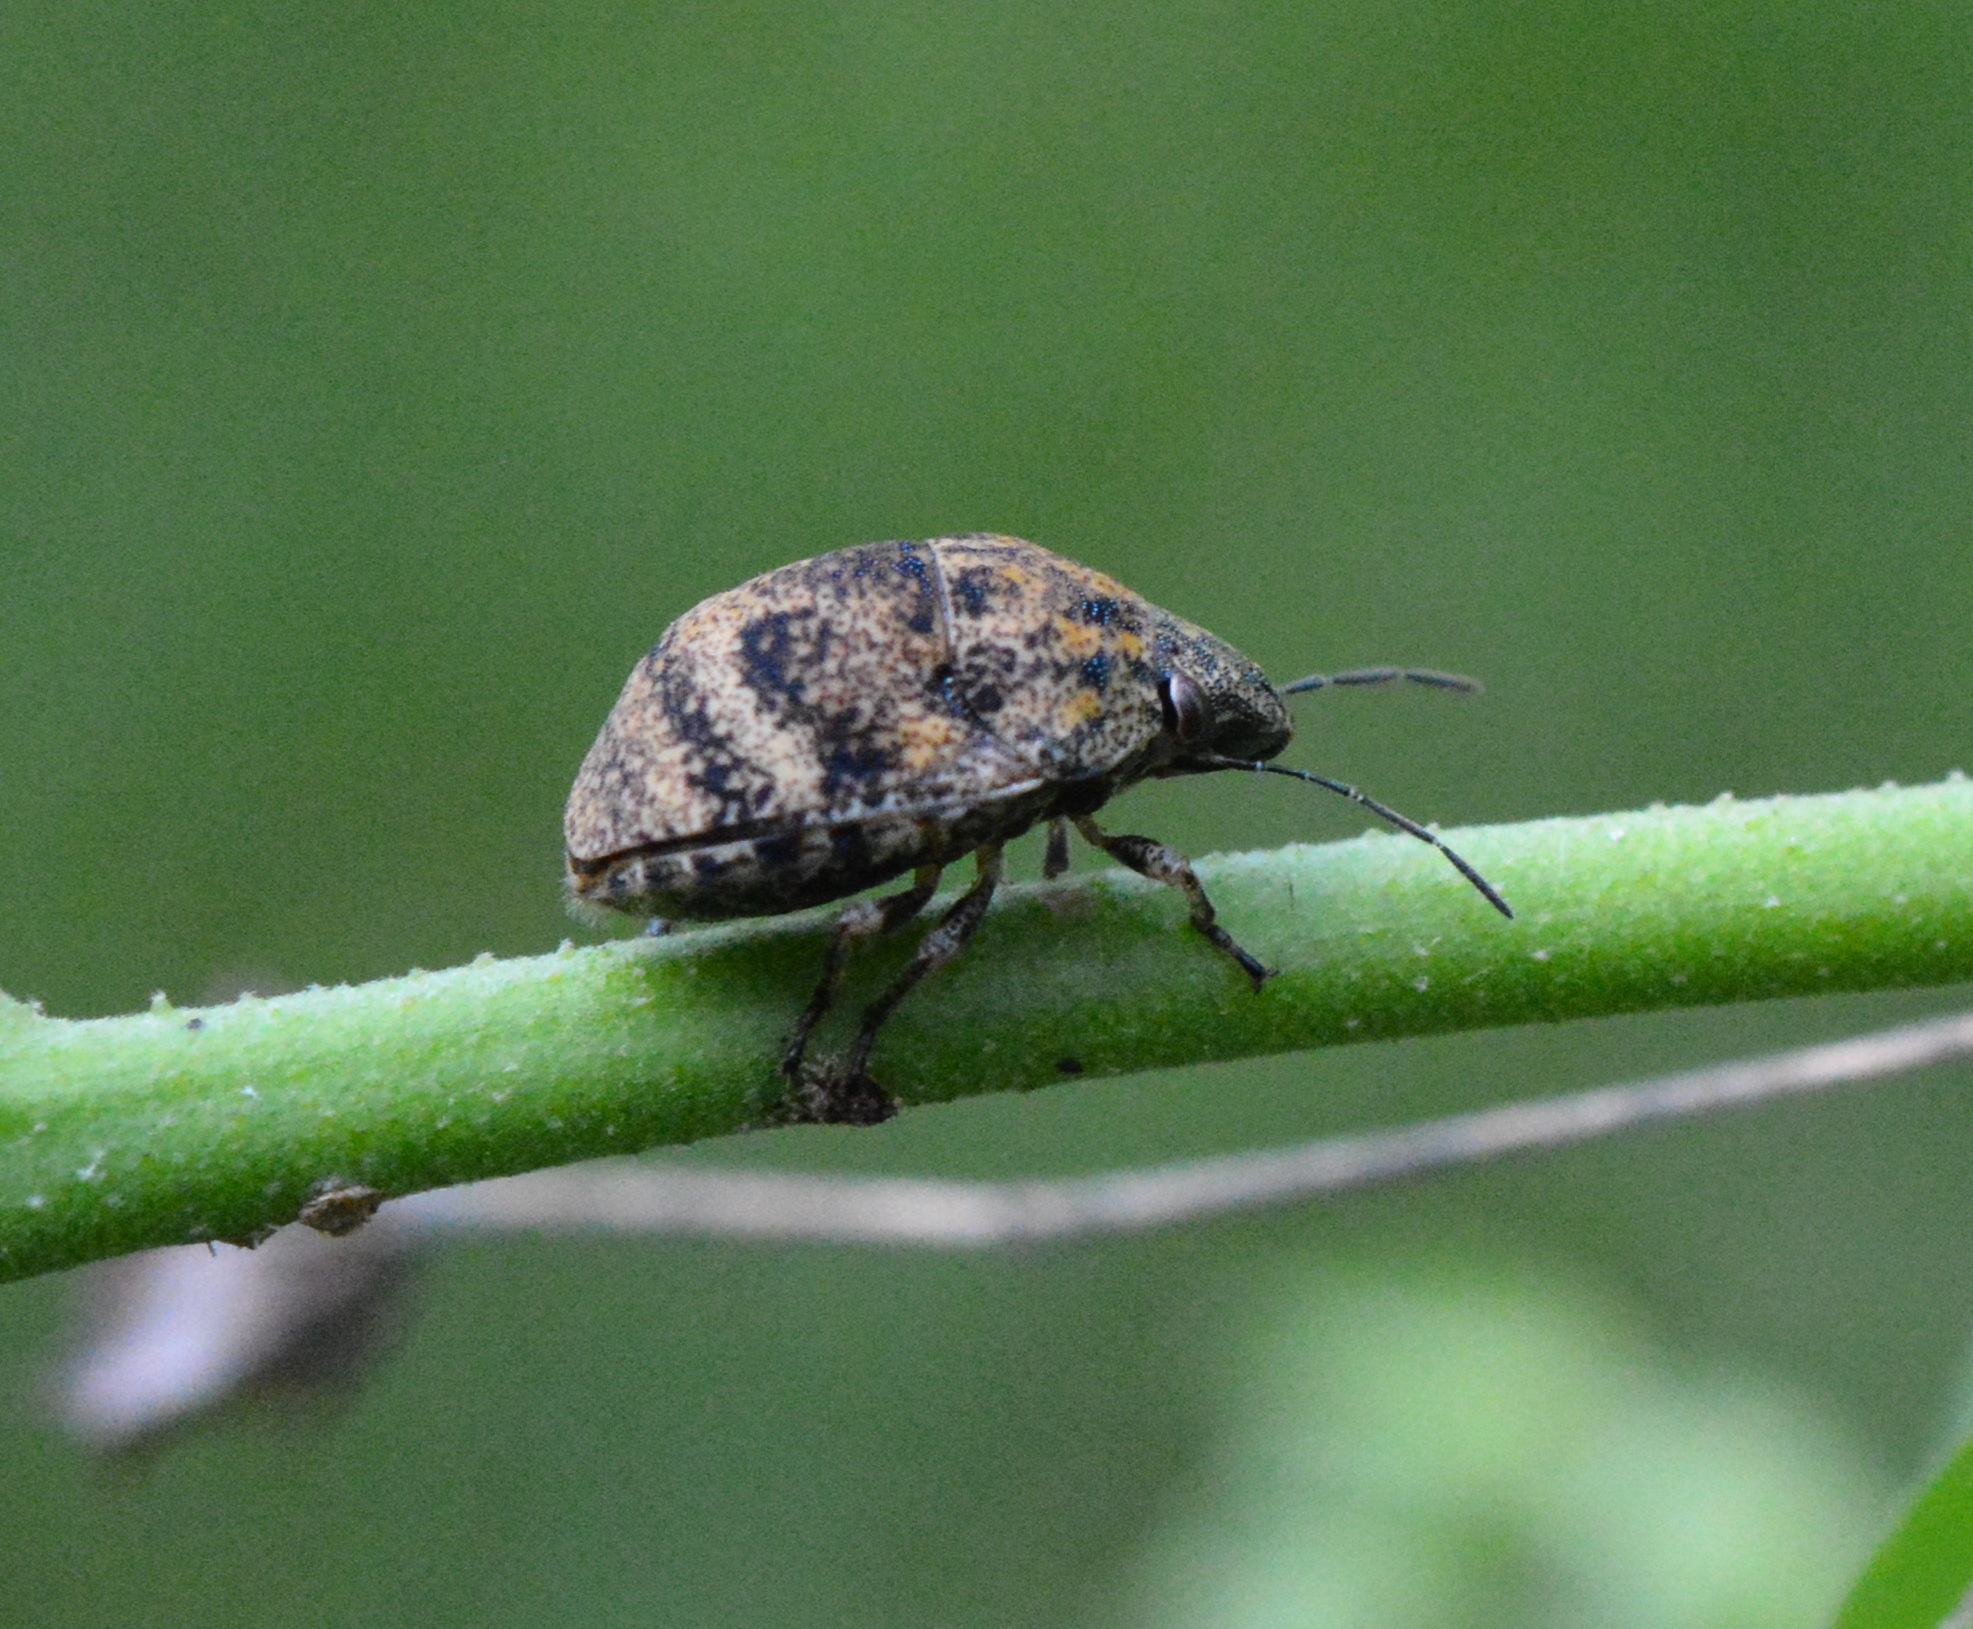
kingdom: Animalia
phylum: Arthropoda
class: Insecta
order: Hemiptera
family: Scutelleridae
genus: Orsilochides
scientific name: Orsilochides
